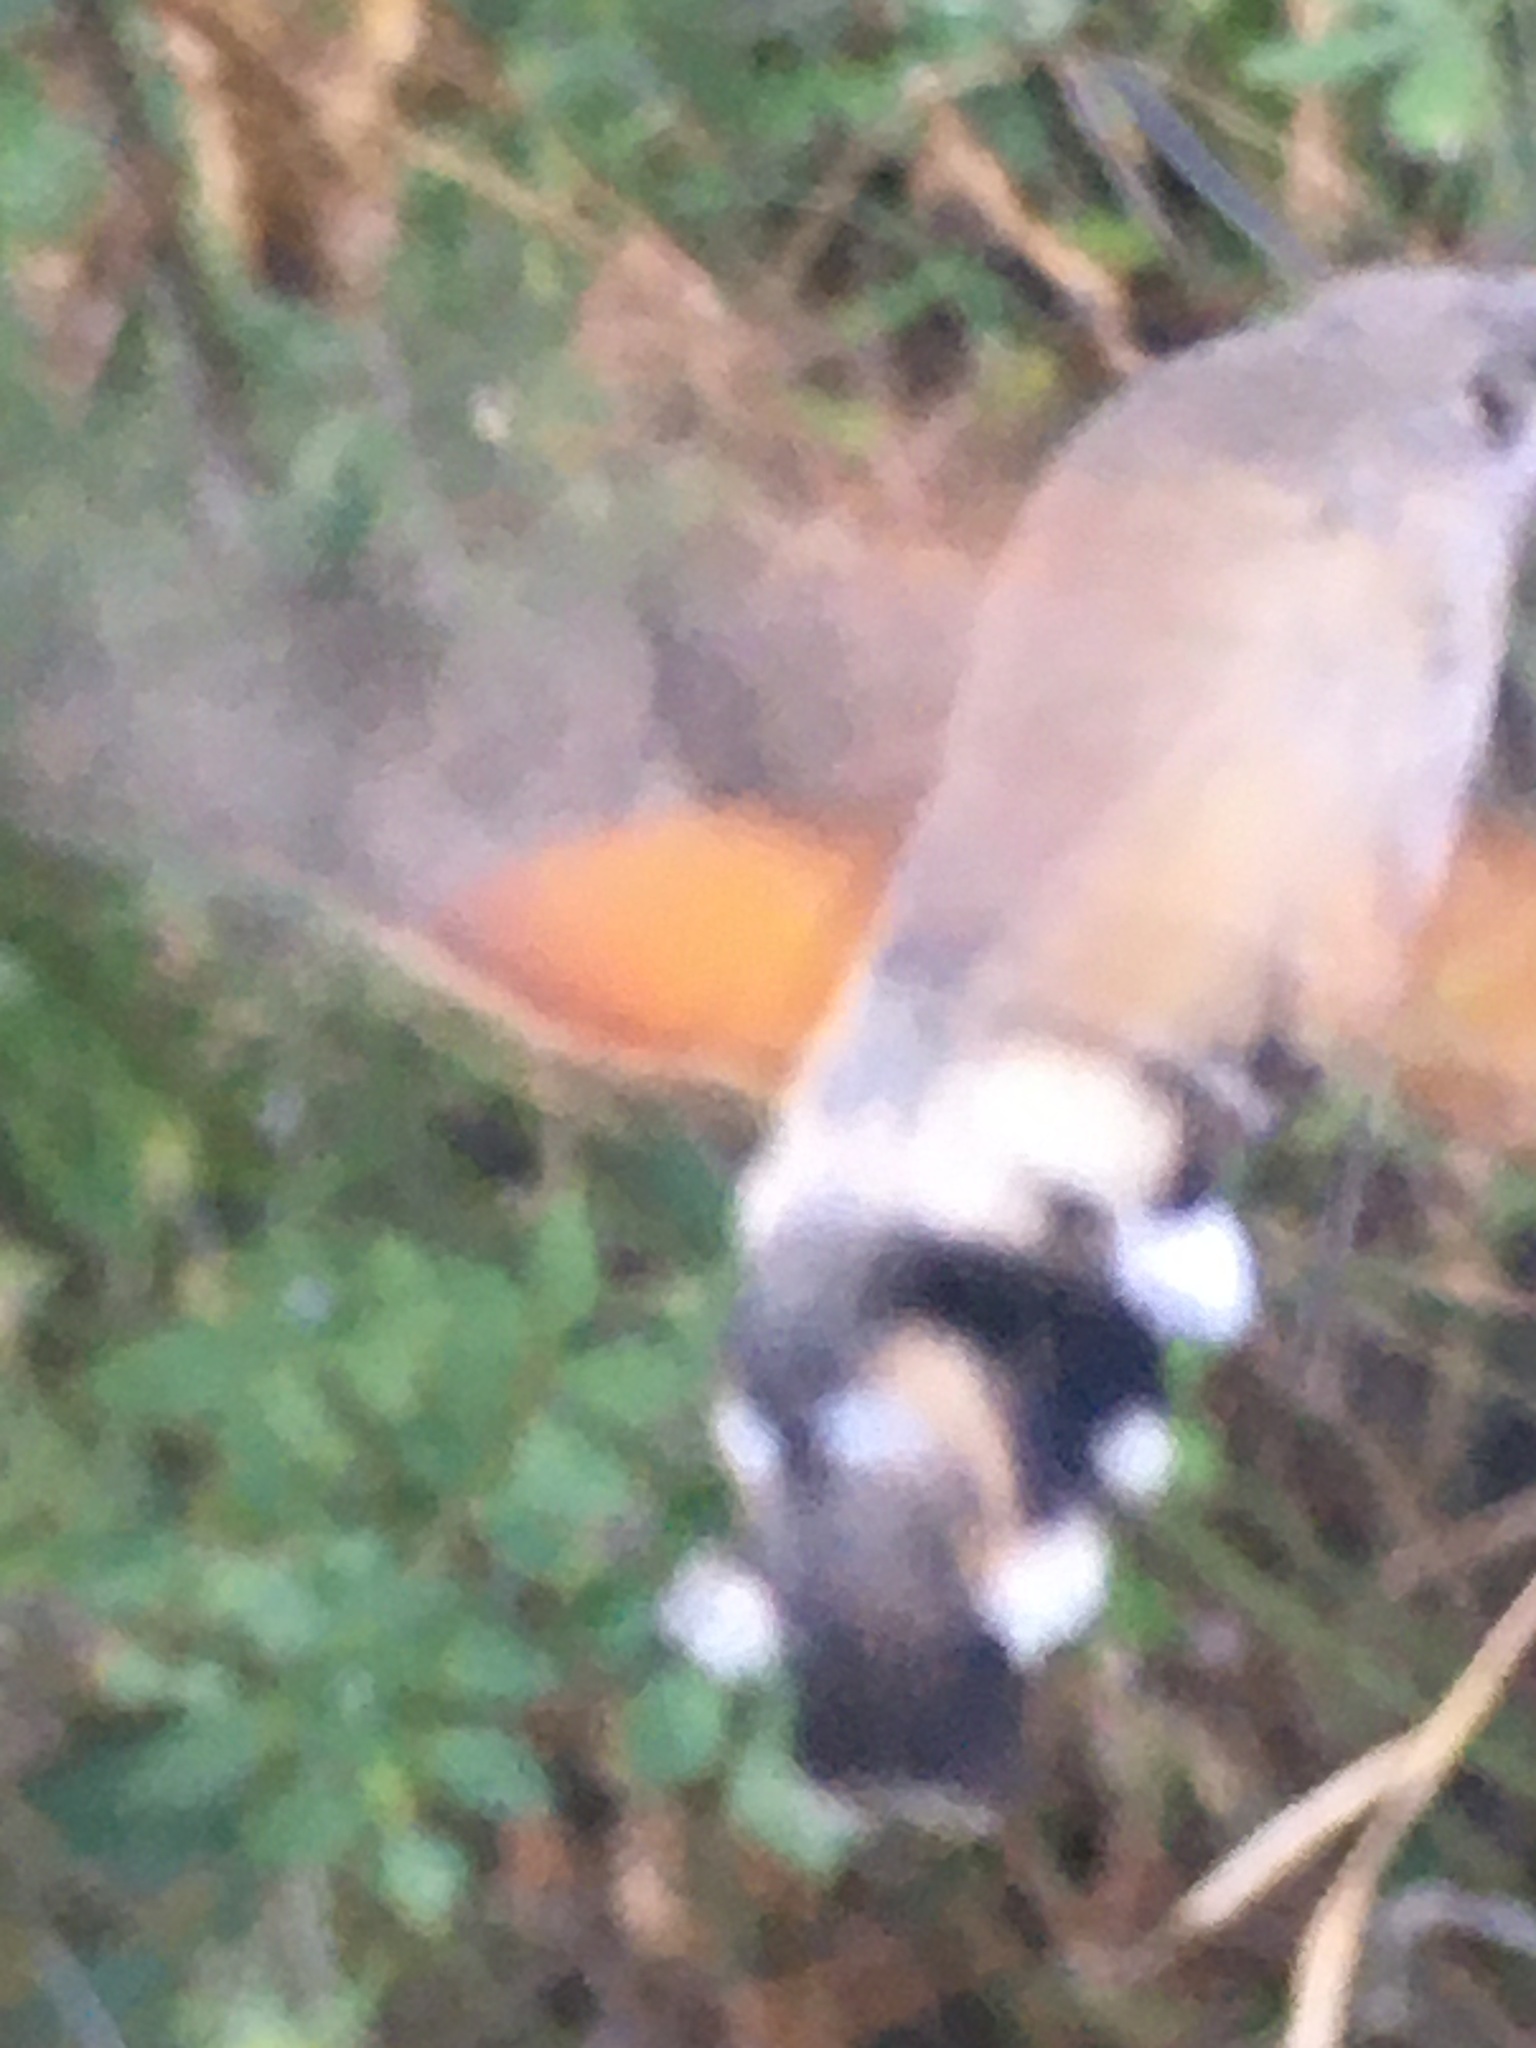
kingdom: Animalia
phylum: Arthropoda
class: Insecta
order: Lepidoptera
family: Sphingidae
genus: Macroglossum
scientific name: Macroglossum stellatarum
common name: Humming-bird hawk-moth
